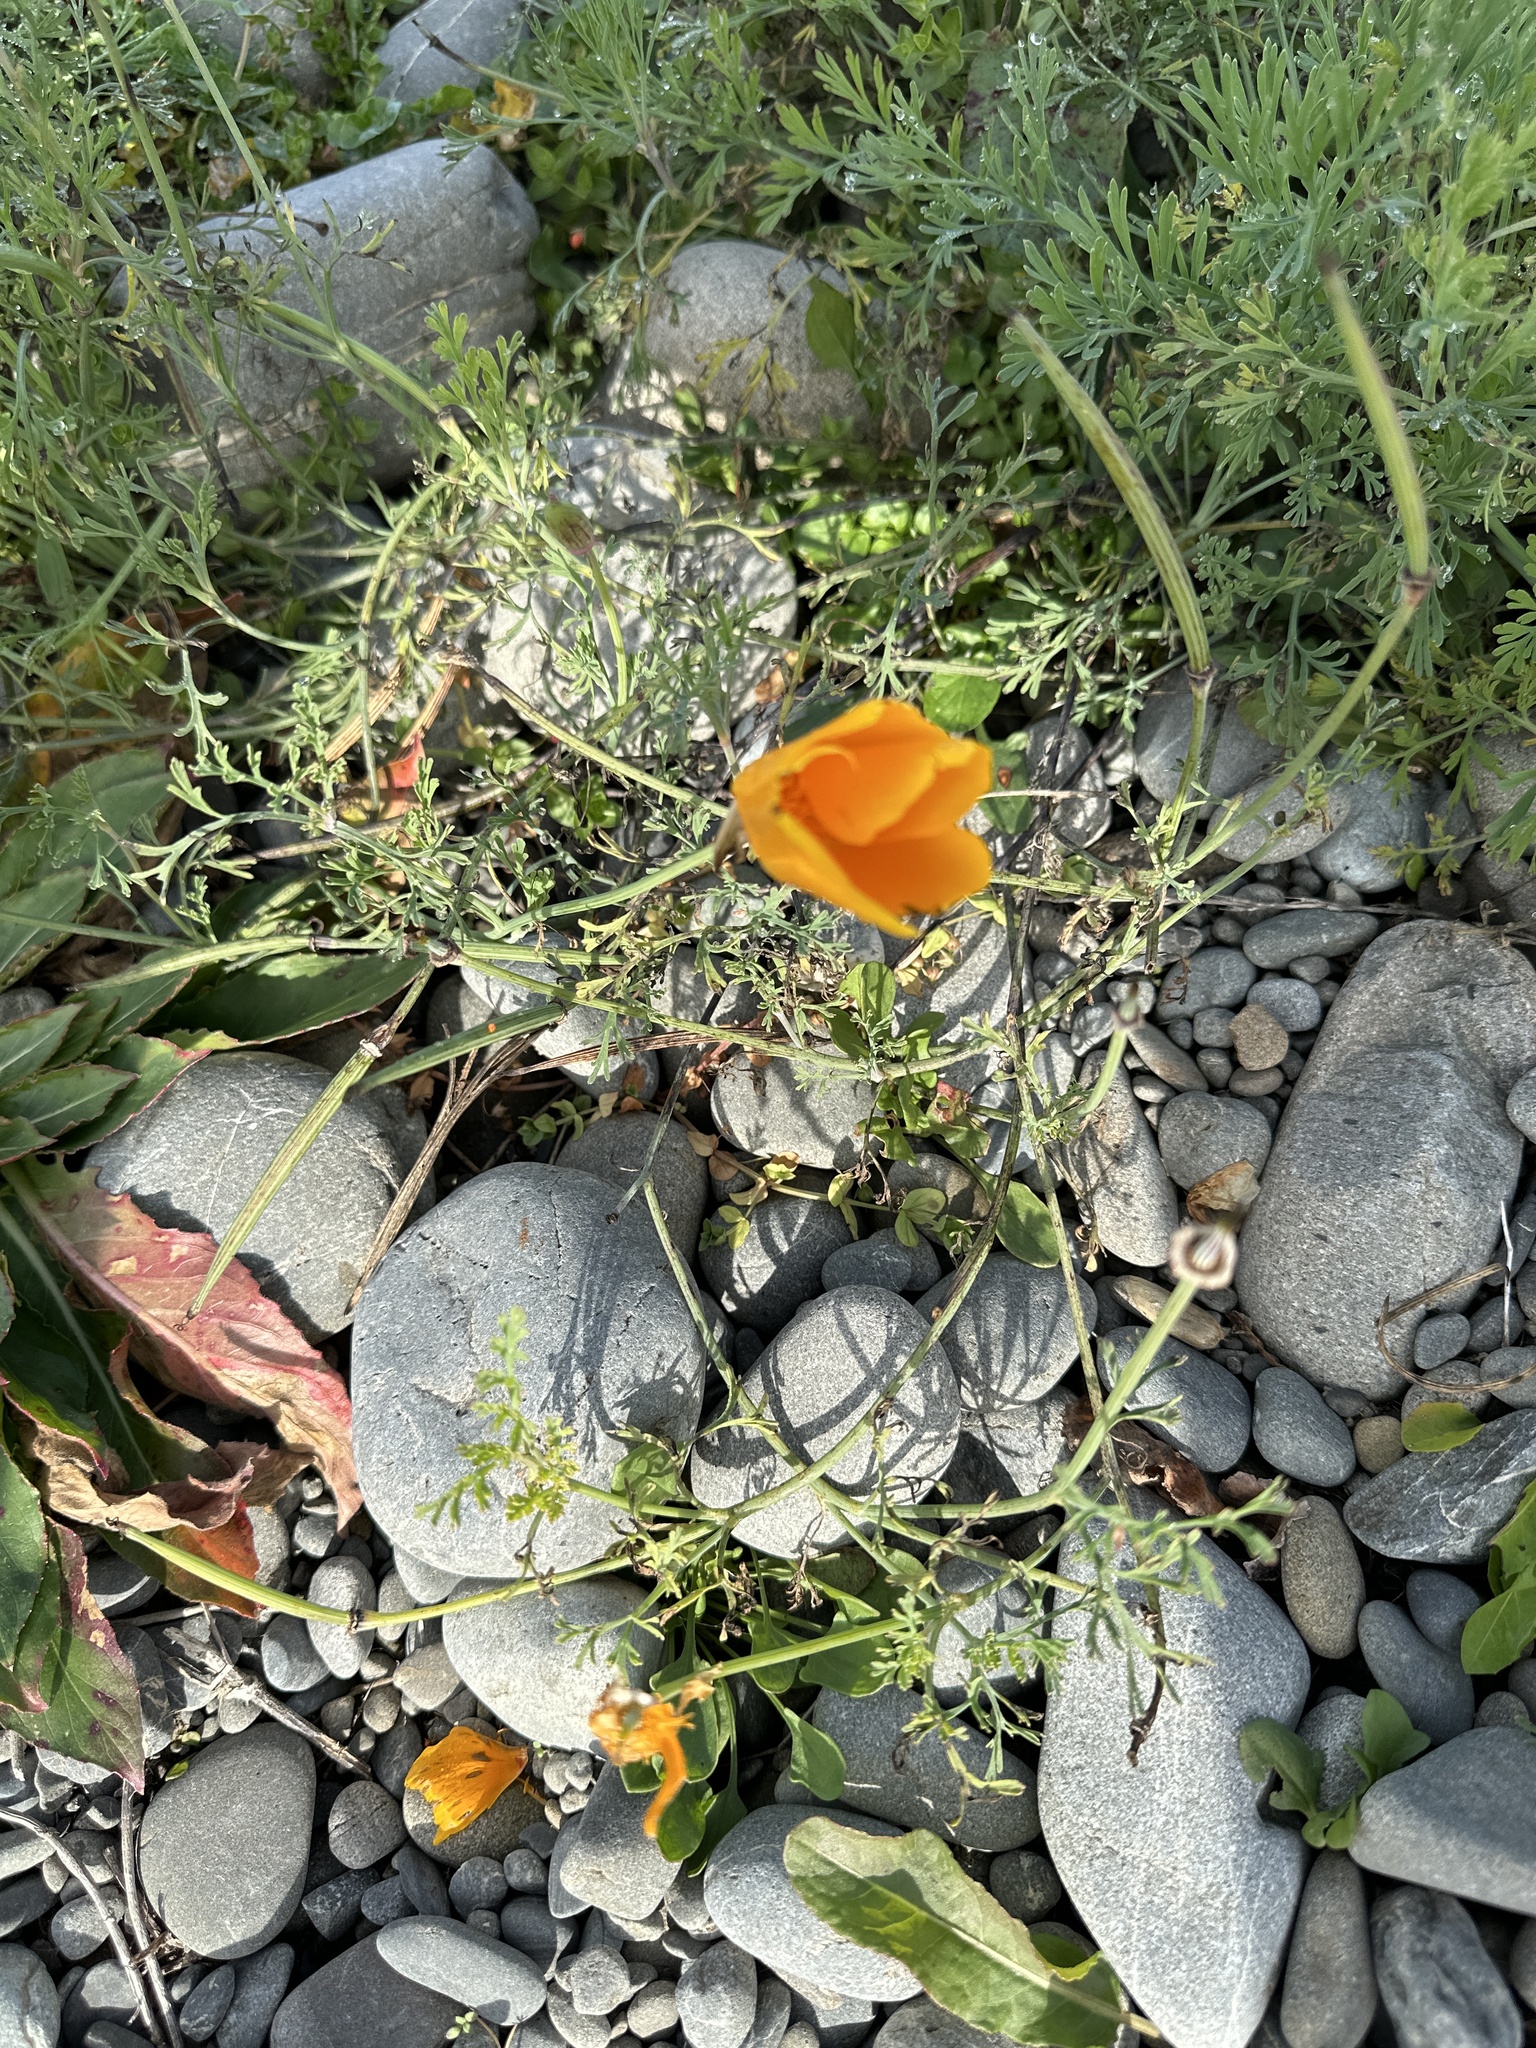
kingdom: Plantae
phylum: Tracheophyta
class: Magnoliopsida
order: Ranunculales
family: Papaveraceae
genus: Eschscholzia
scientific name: Eschscholzia californica
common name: California poppy
